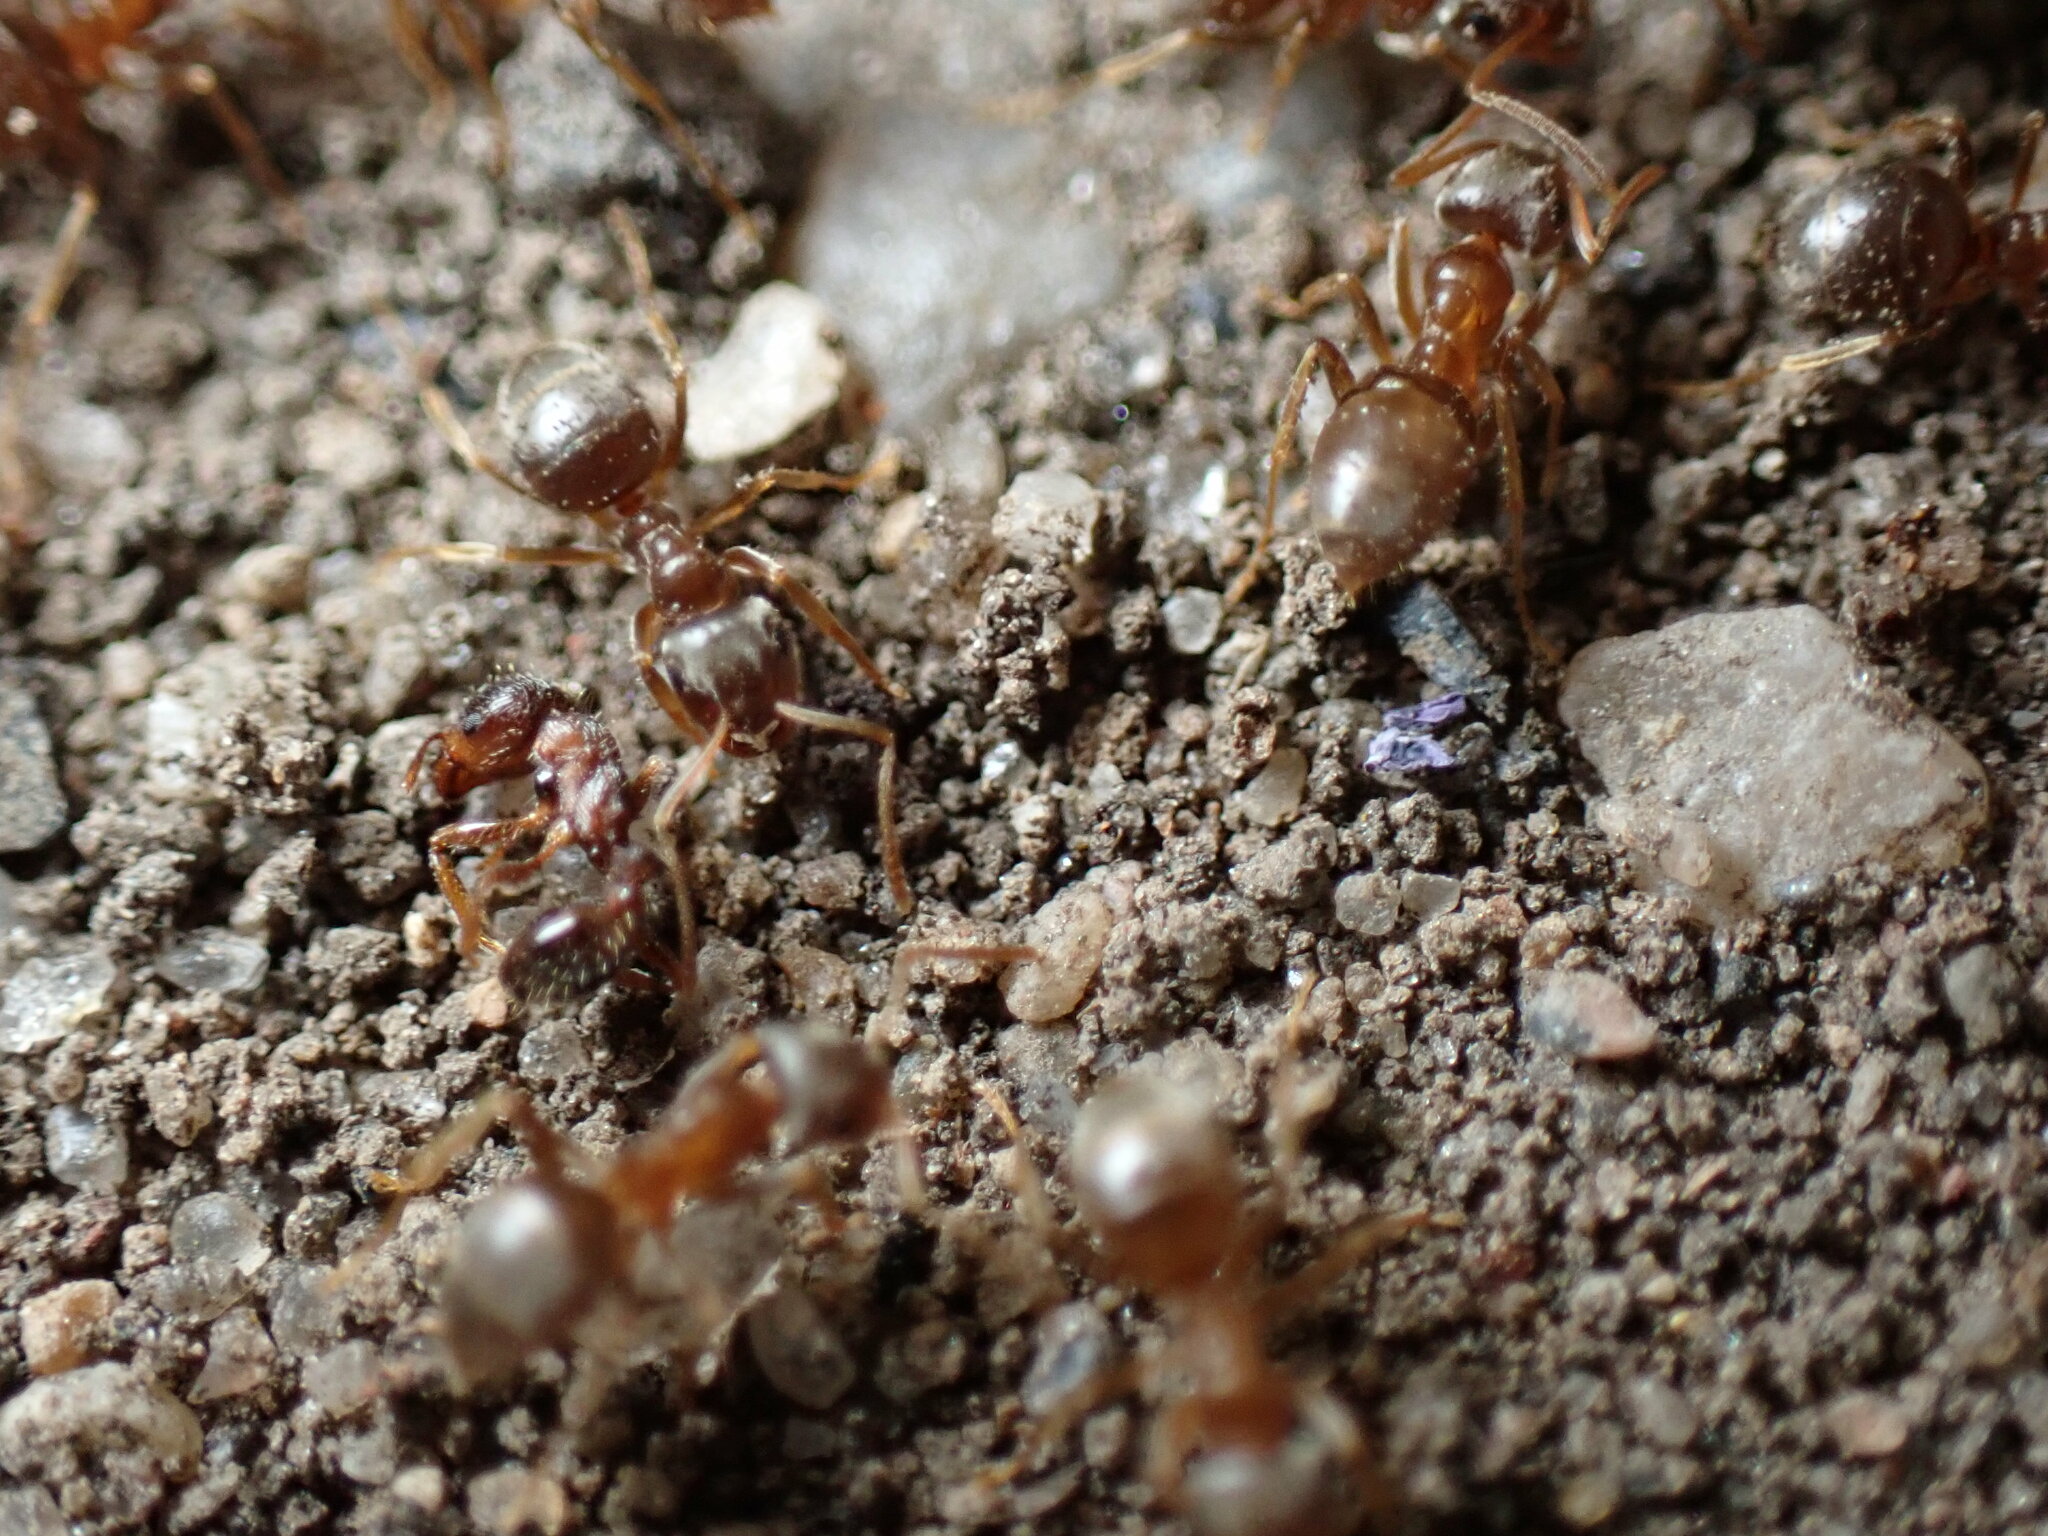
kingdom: Animalia
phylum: Arthropoda
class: Insecta
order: Hymenoptera
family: Formicidae
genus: Lasius
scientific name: Lasius neoniger
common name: Turfgrass ant
